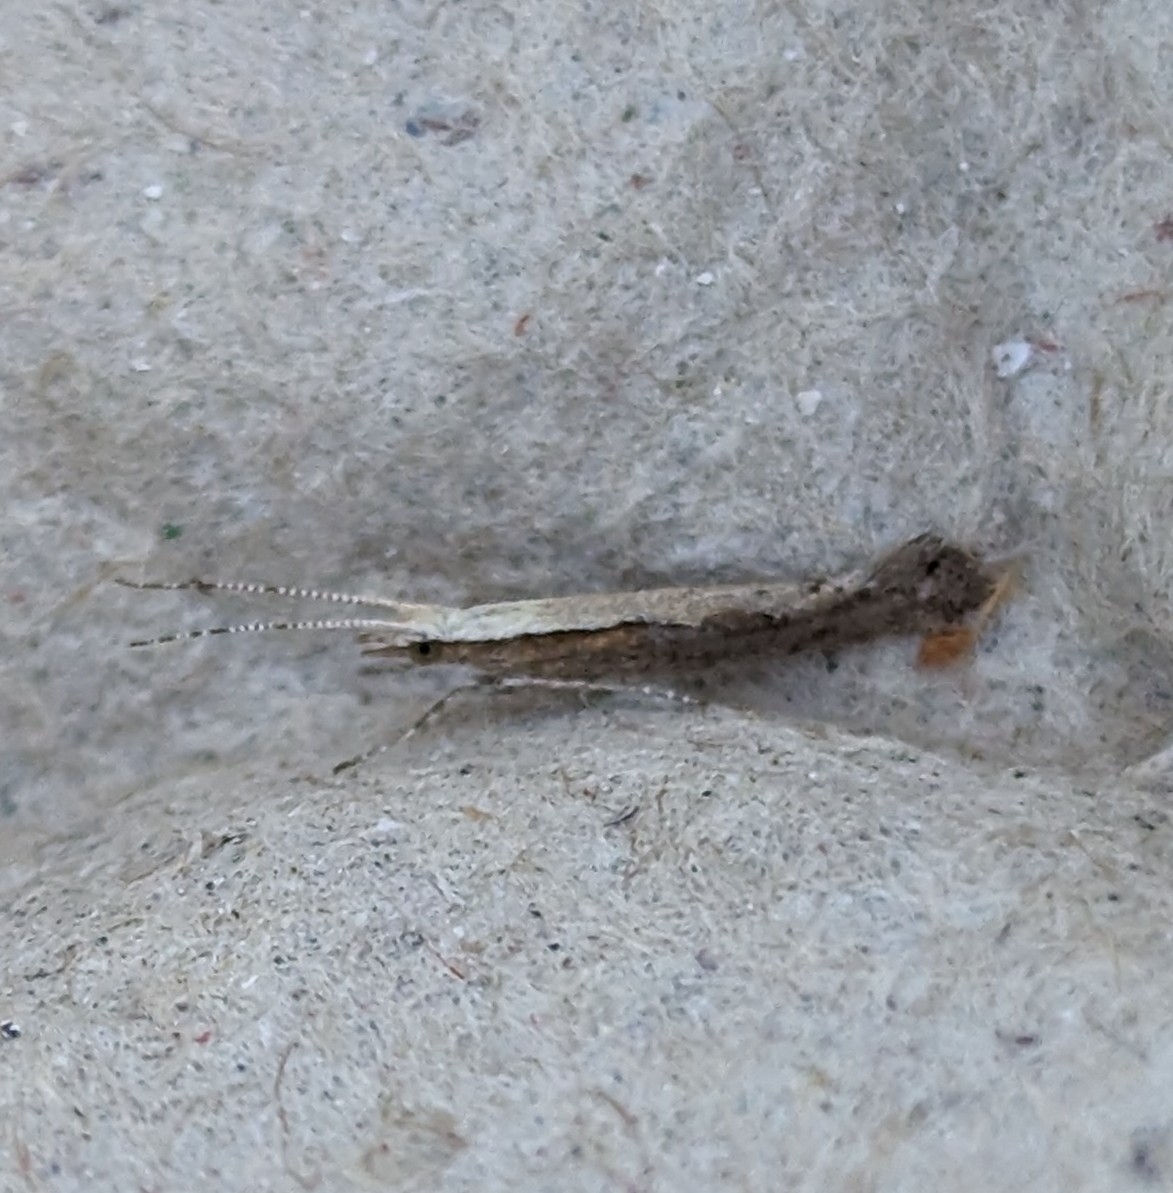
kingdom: Animalia
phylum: Arthropoda
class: Insecta
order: Lepidoptera
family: Plutellidae
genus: Plutella
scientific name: Plutella xylostella
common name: Diamond-back moth
